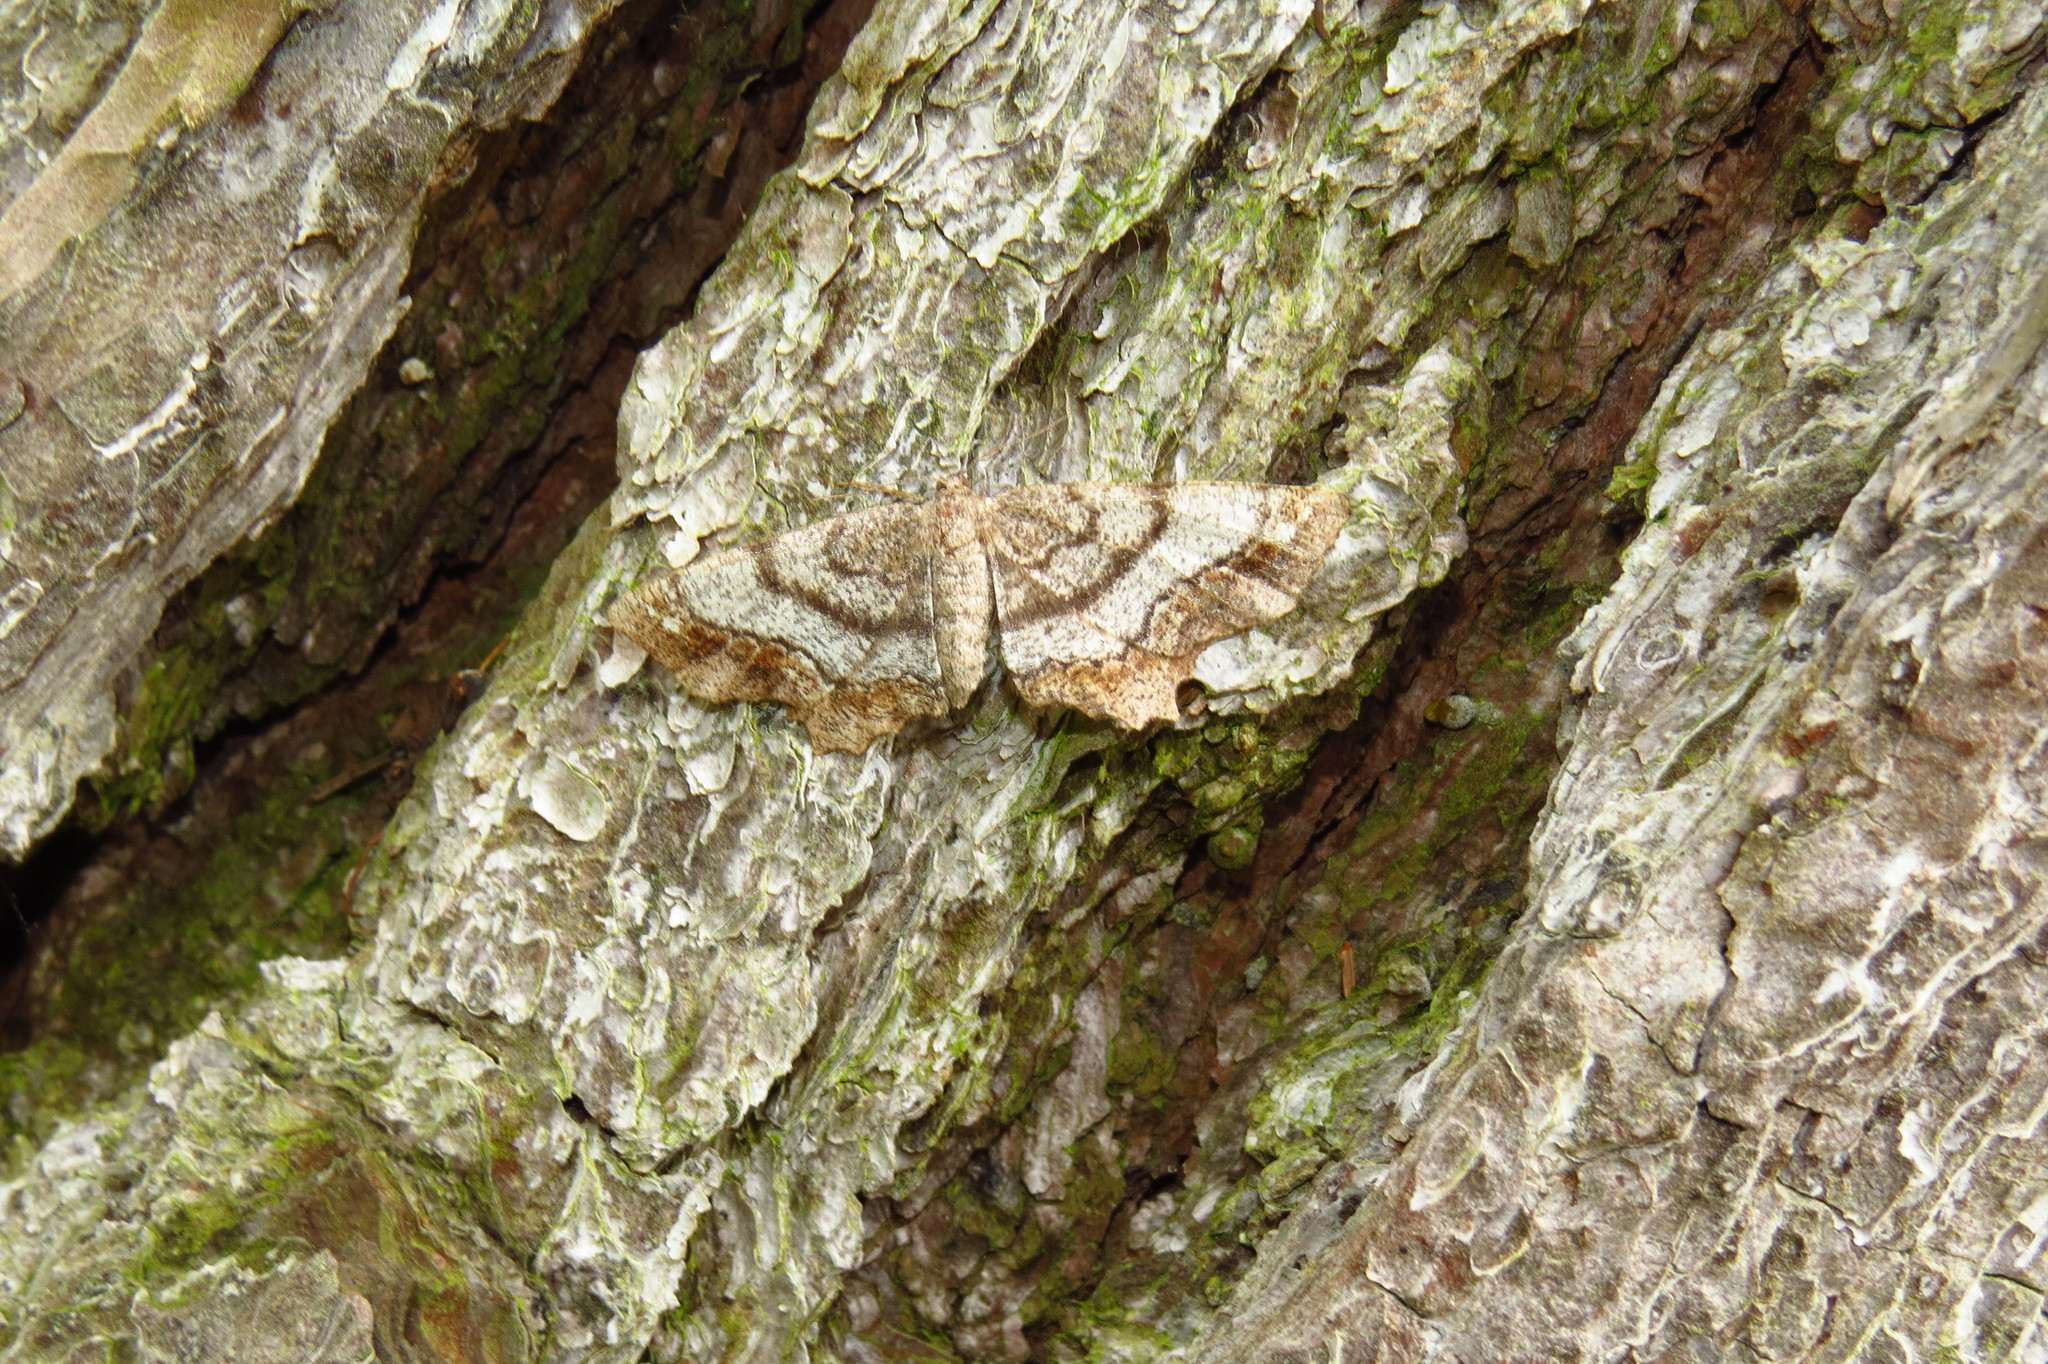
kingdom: Animalia
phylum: Arthropoda
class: Insecta
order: Lepidoptera
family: Geometridae
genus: Hypagyrtis
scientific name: Hypagyrtis unipunctata
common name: One-spotted variant
